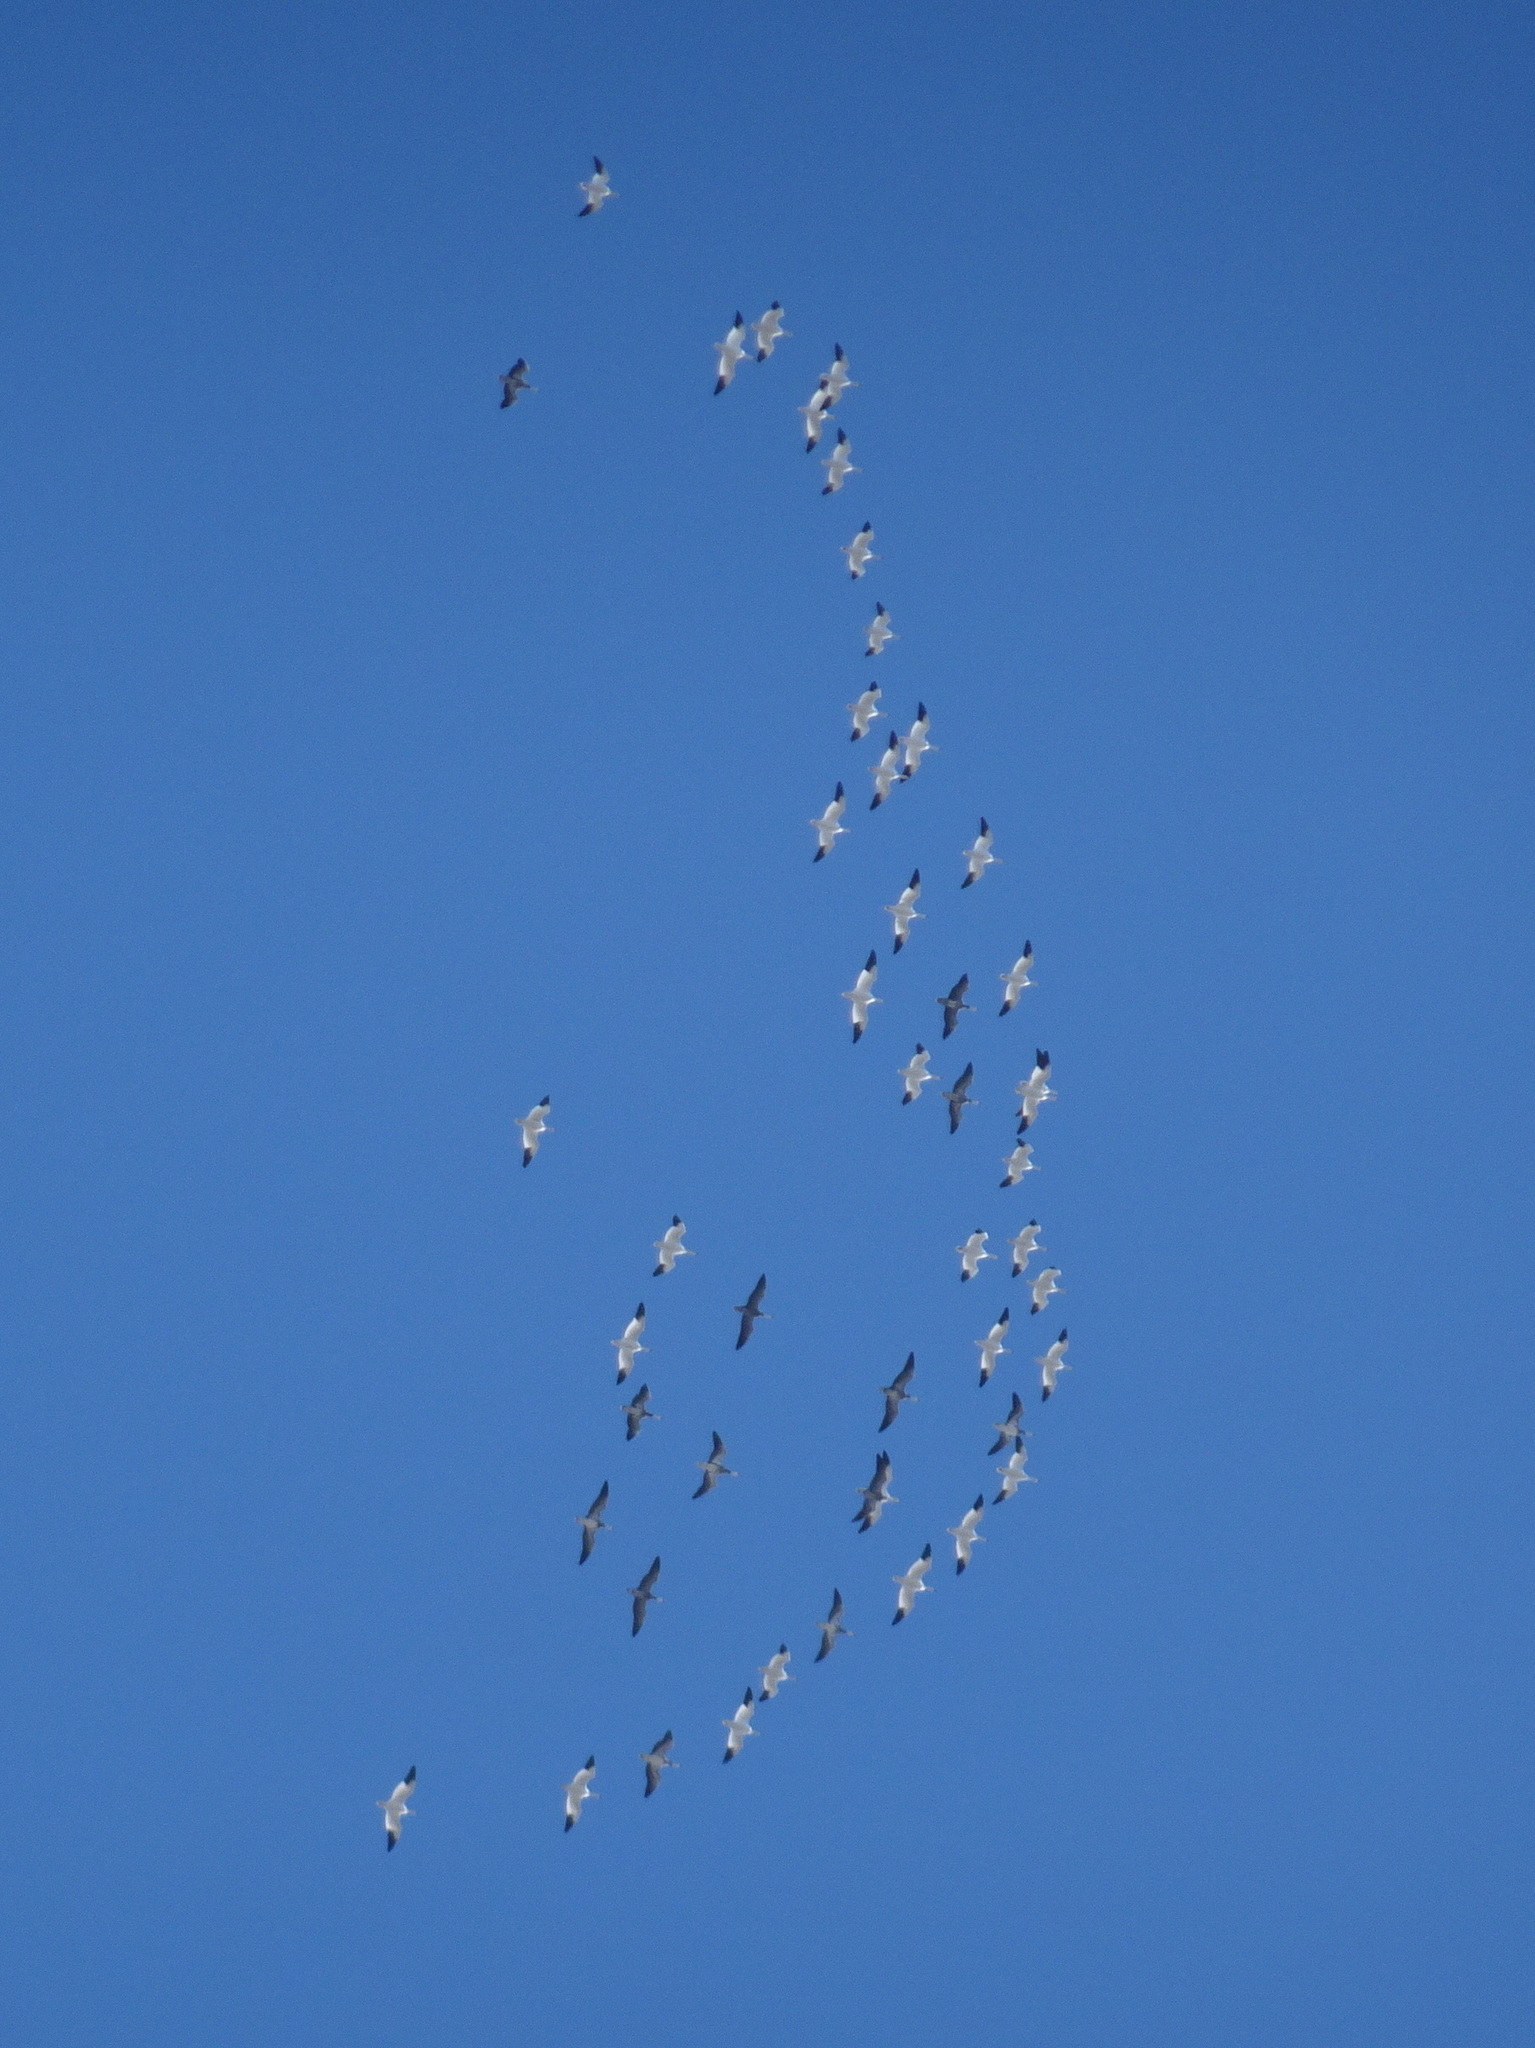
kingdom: Animalia
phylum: Chordata
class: Aves
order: Anseriformes
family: Anatidae
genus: Anser
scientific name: Anser caerulescens
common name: Snow goose
